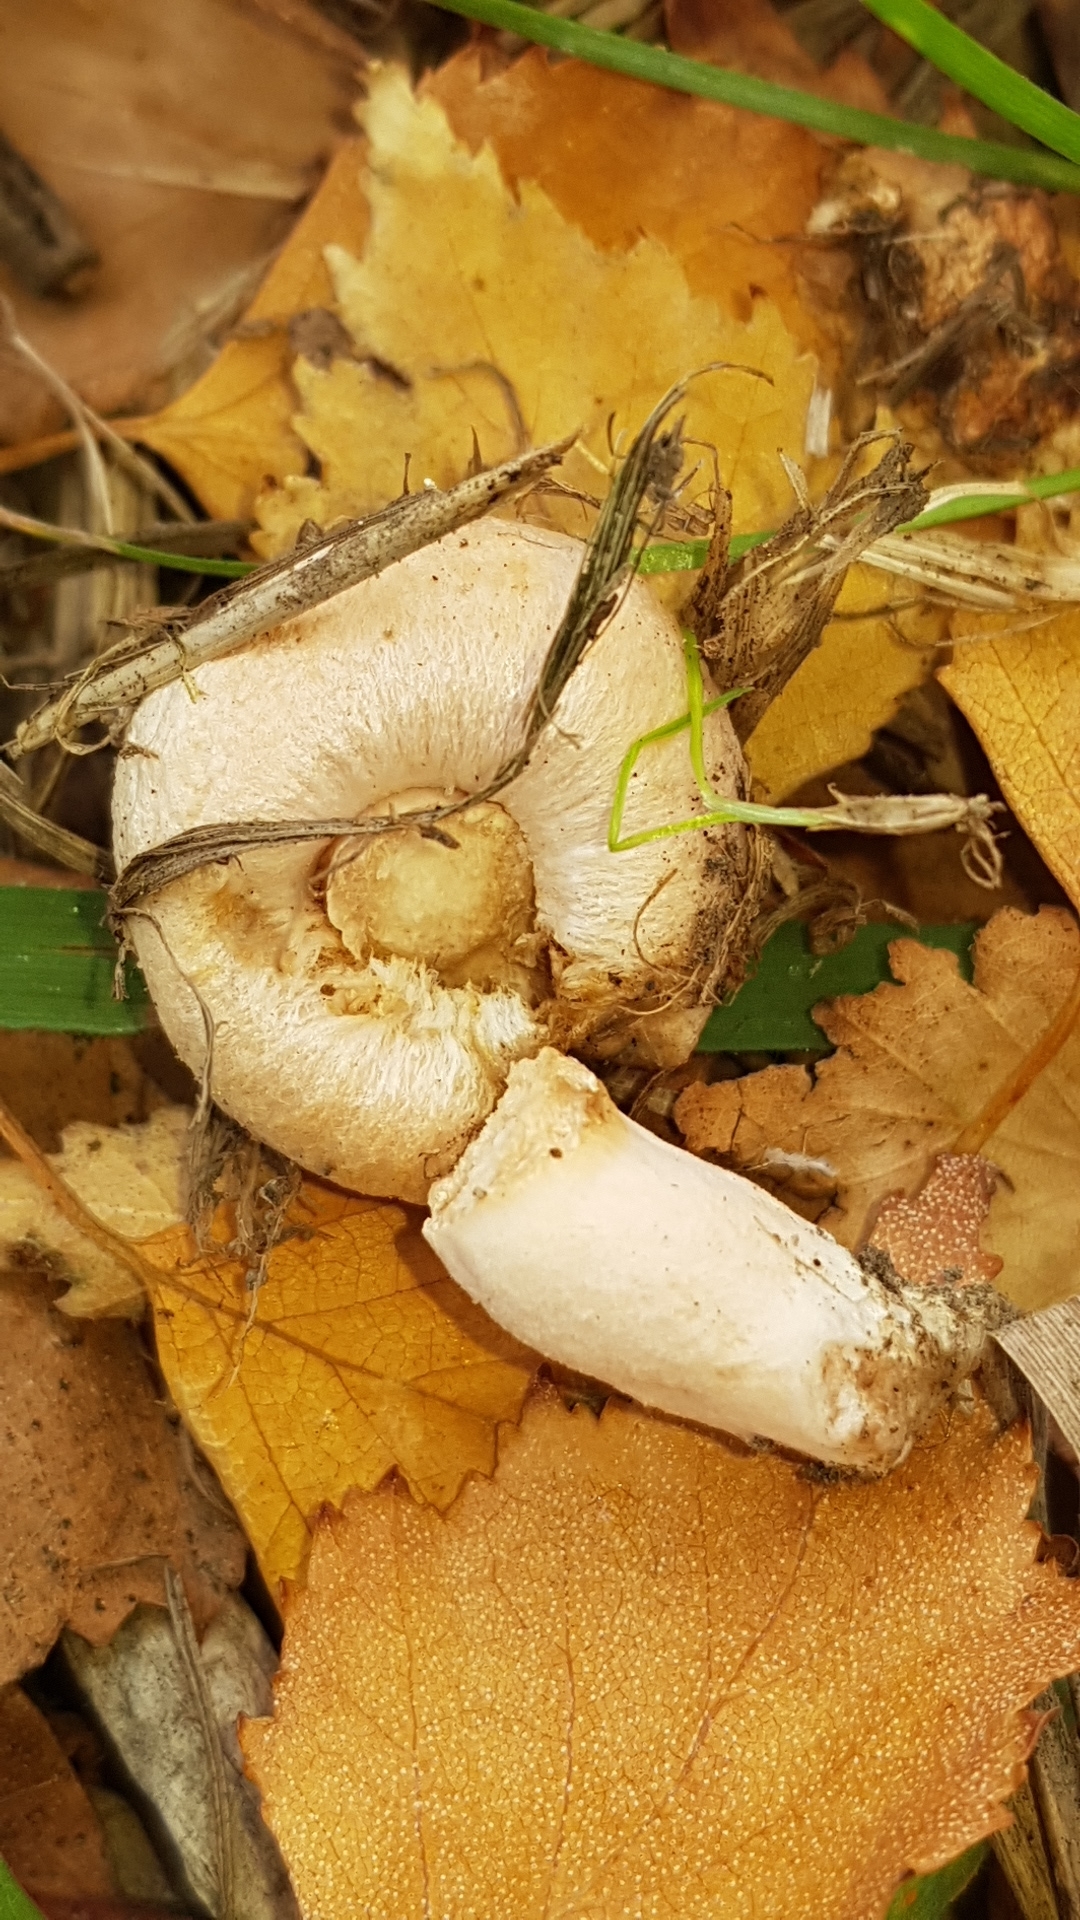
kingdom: Fungi
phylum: Basidiomycota
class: Agaricomycetes
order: Russulales
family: Russulaceae
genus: Lactarius
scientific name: Lactarius pubescens
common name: Bearded milkcap
